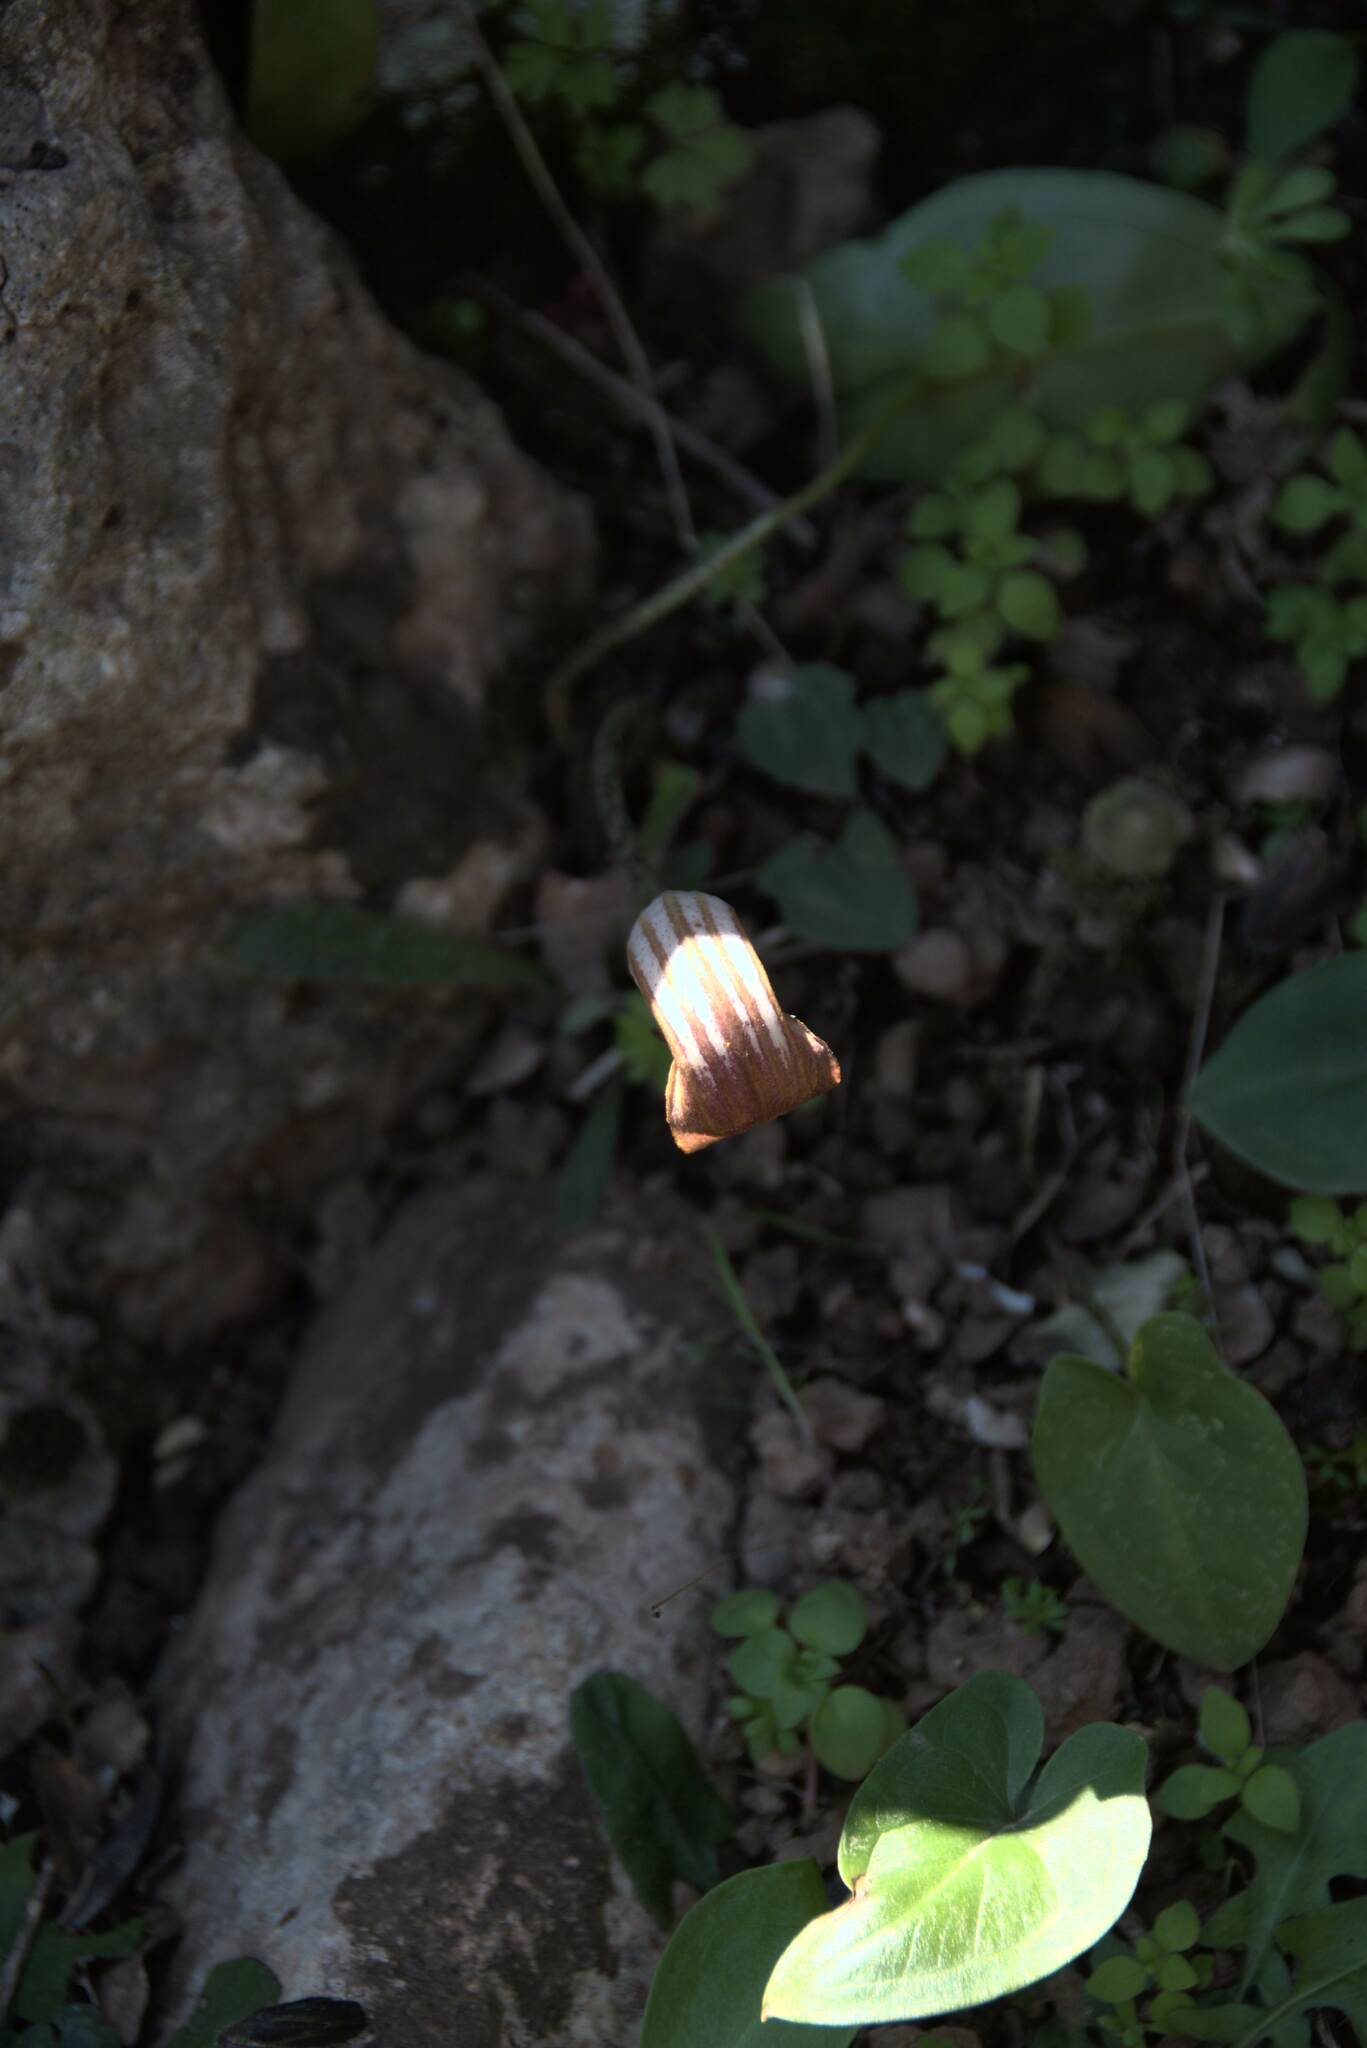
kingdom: Plantae
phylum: Tracheophyta
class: Liliopsida
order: Alismatales
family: Araceae
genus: Arisarum
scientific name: Arisarum vulgare
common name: Common arisarum
